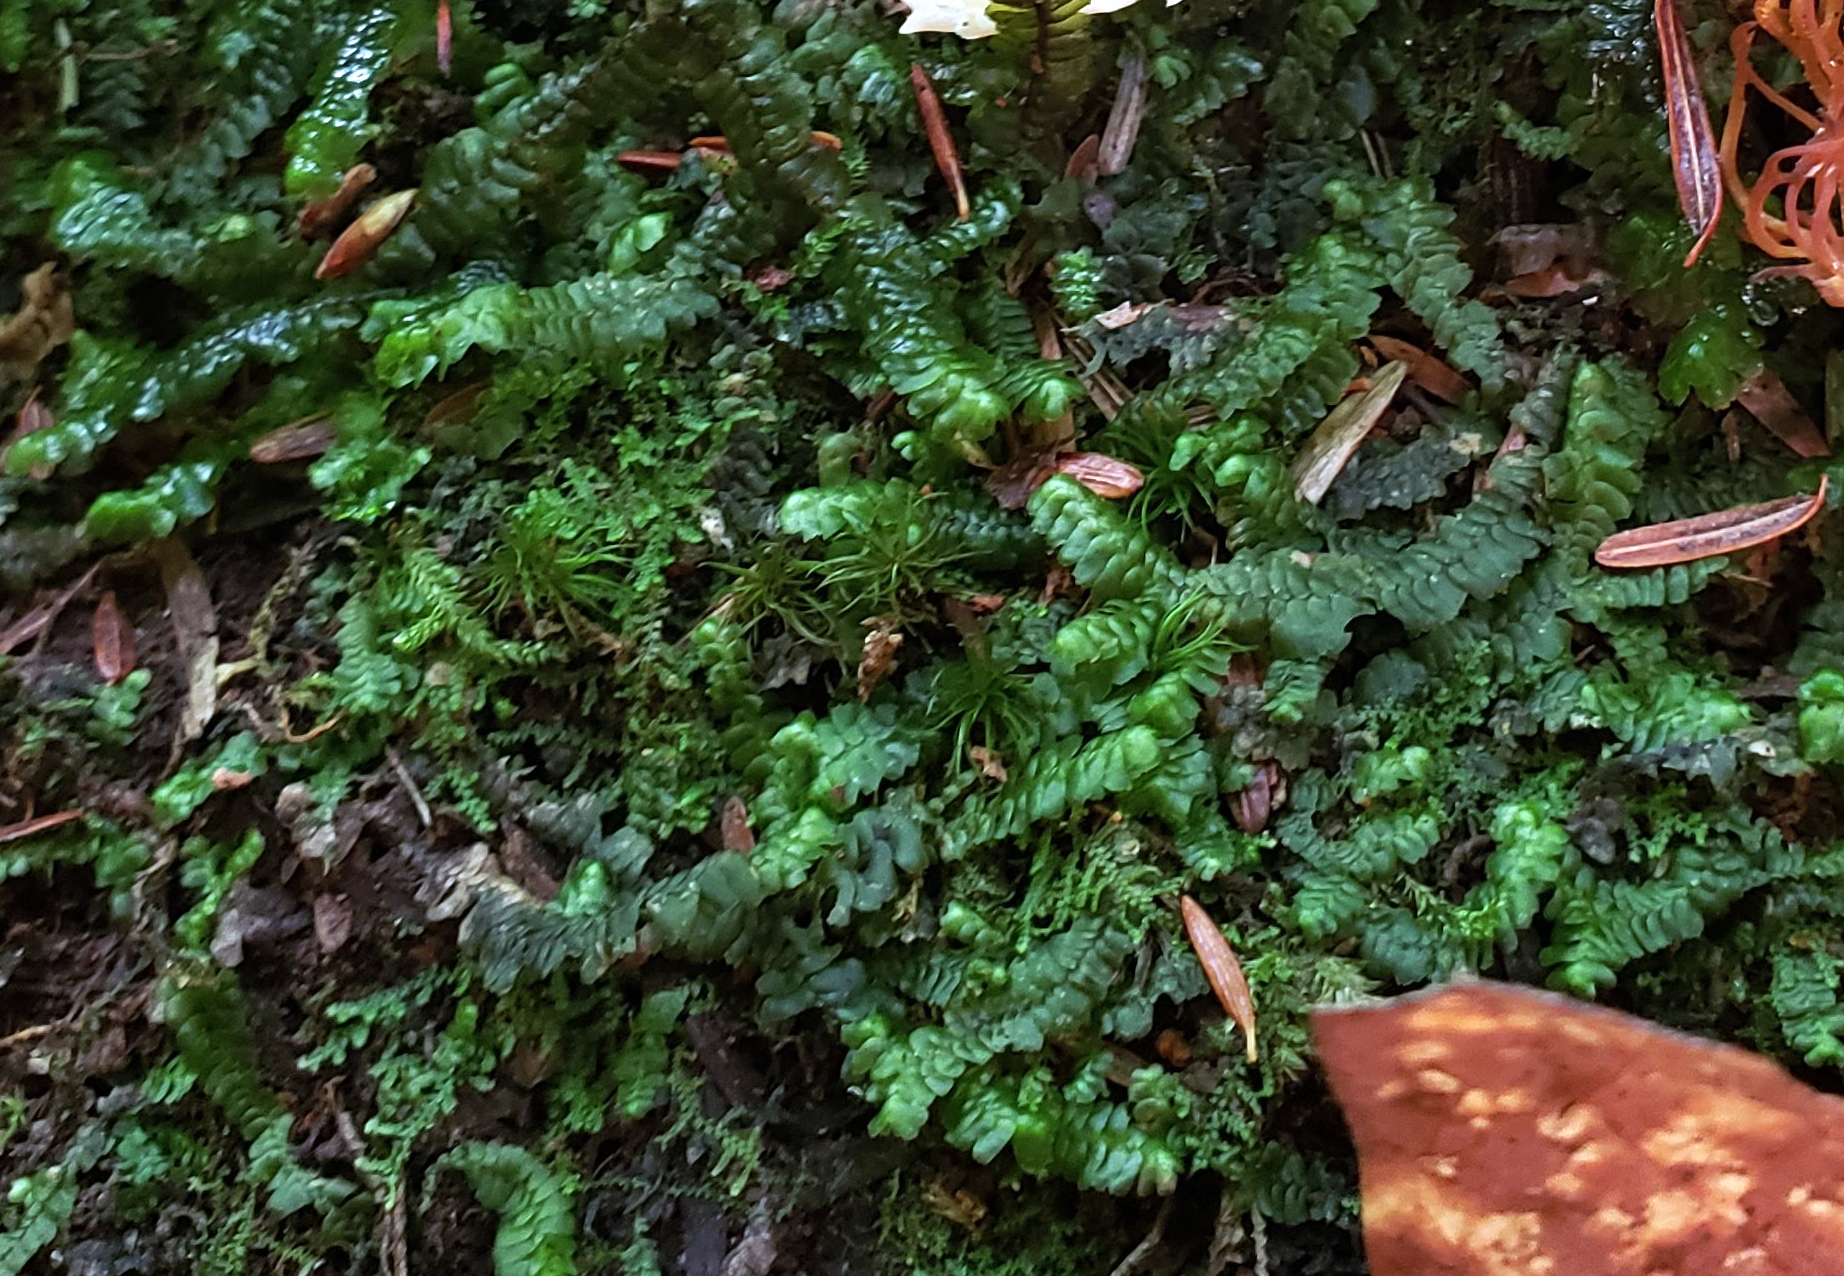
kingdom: Plantae
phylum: Marchantiophyta
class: Jungermanniopsida
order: Jungermanniales
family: Lepidoziaceae
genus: Bazzania
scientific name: Bazzania trilobata
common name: Three-lobed whipwort
